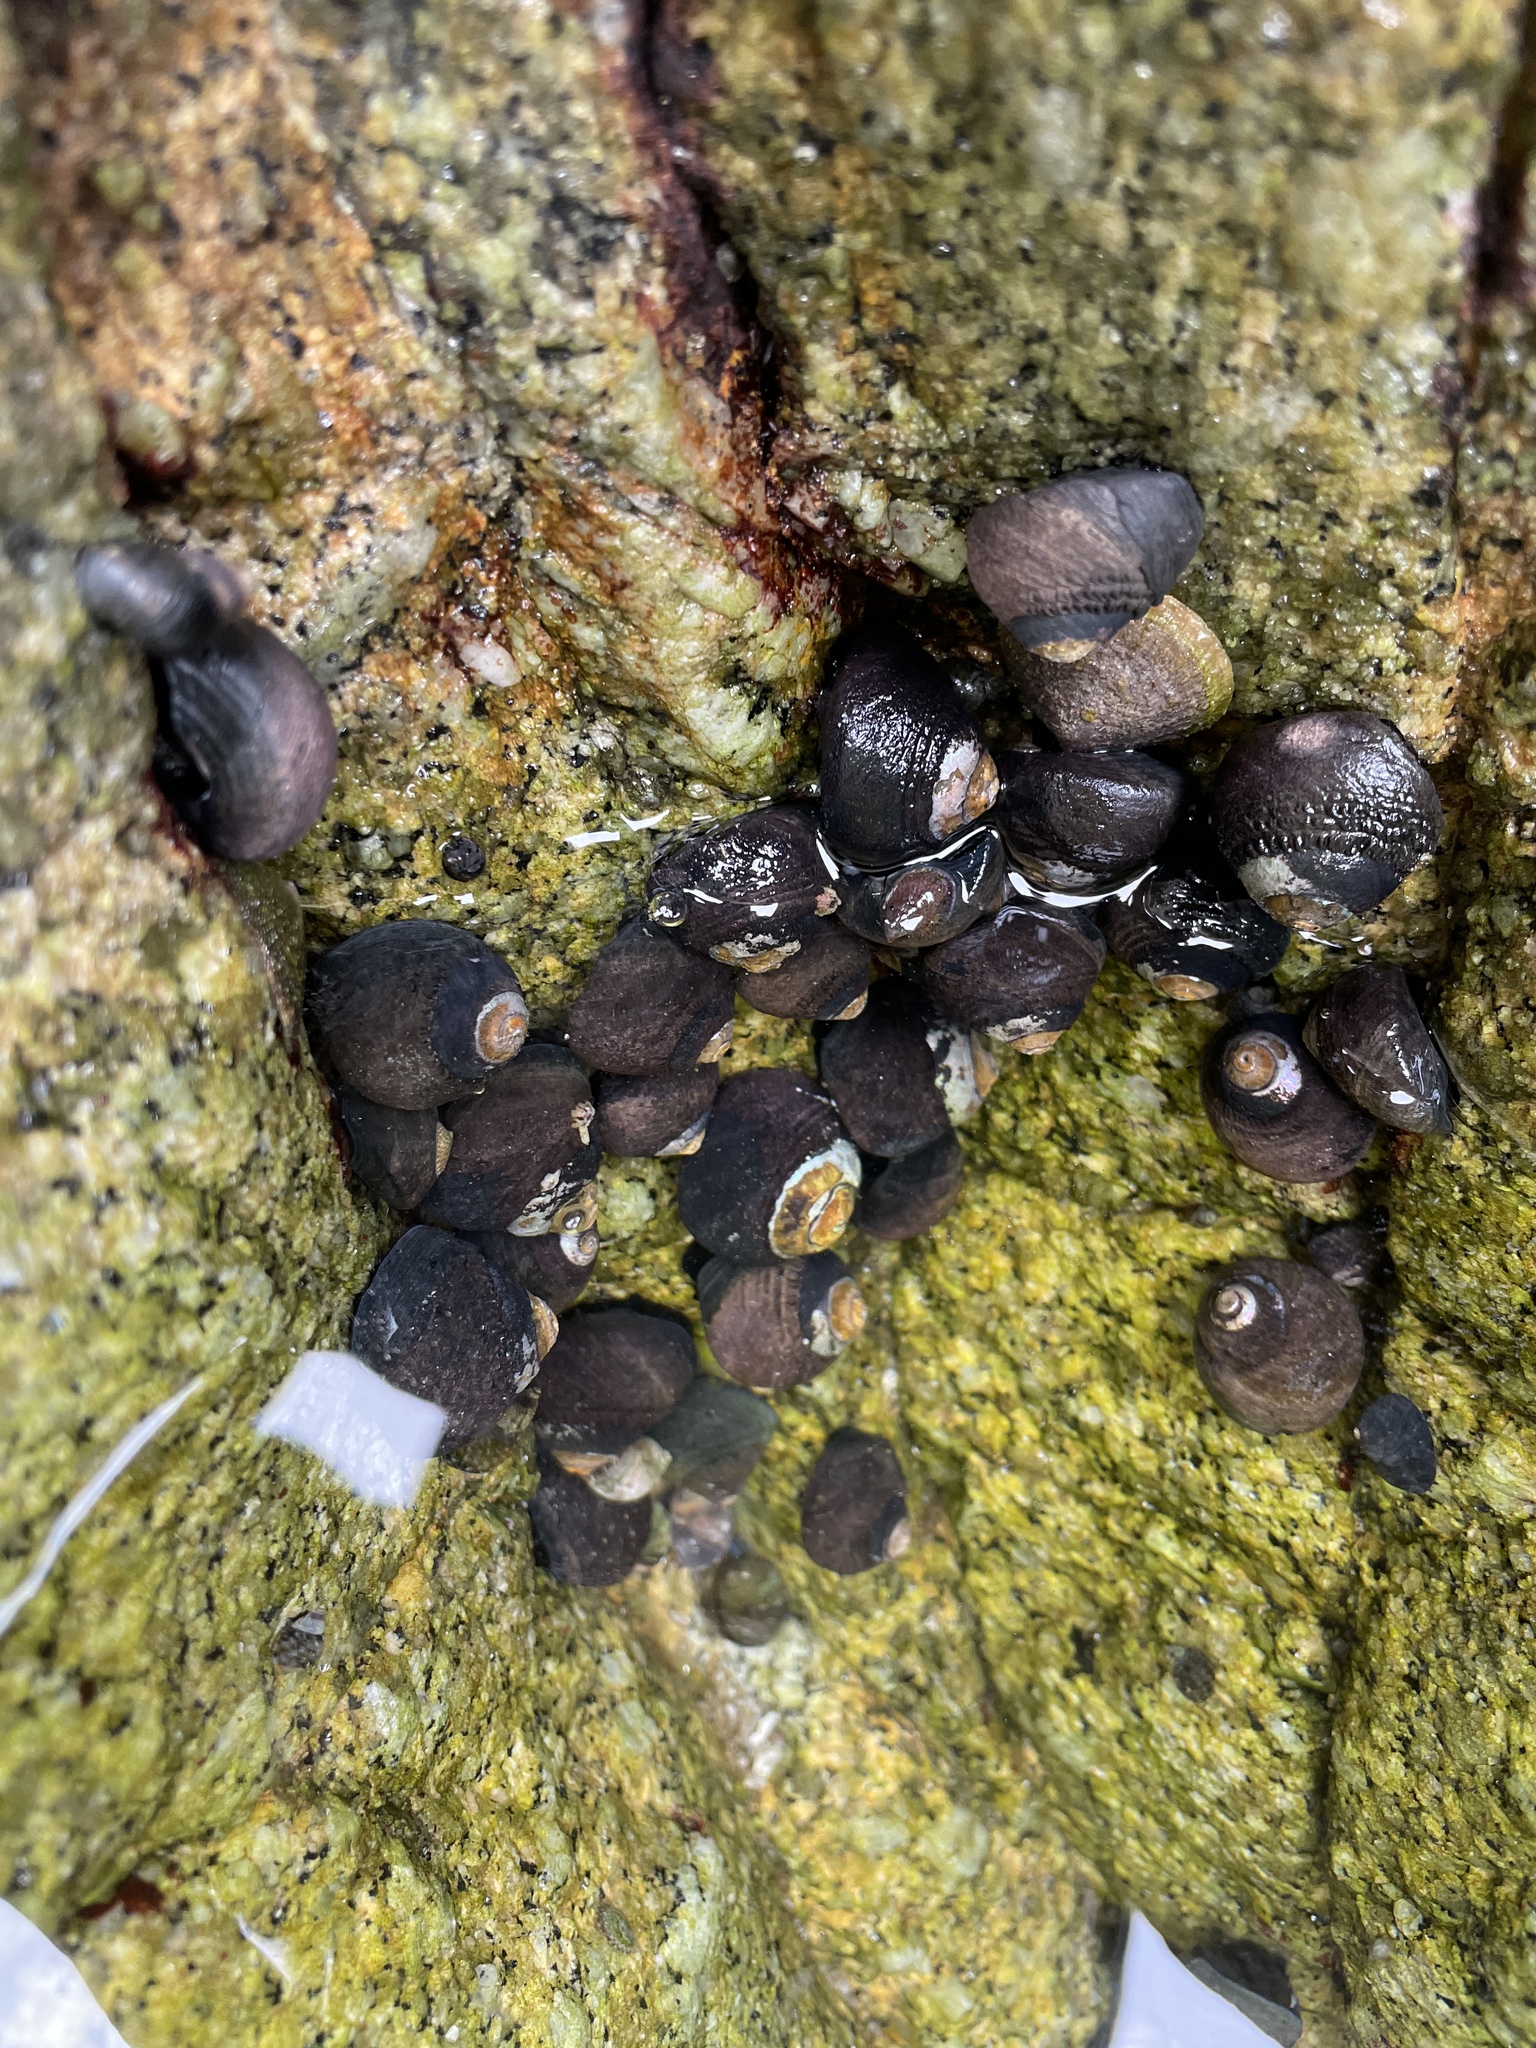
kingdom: Animalia
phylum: Mollusca
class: Gastropoda
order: Trochida
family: Tegulidae
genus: Tegula
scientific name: Tegula funebralis
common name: Black tegula
